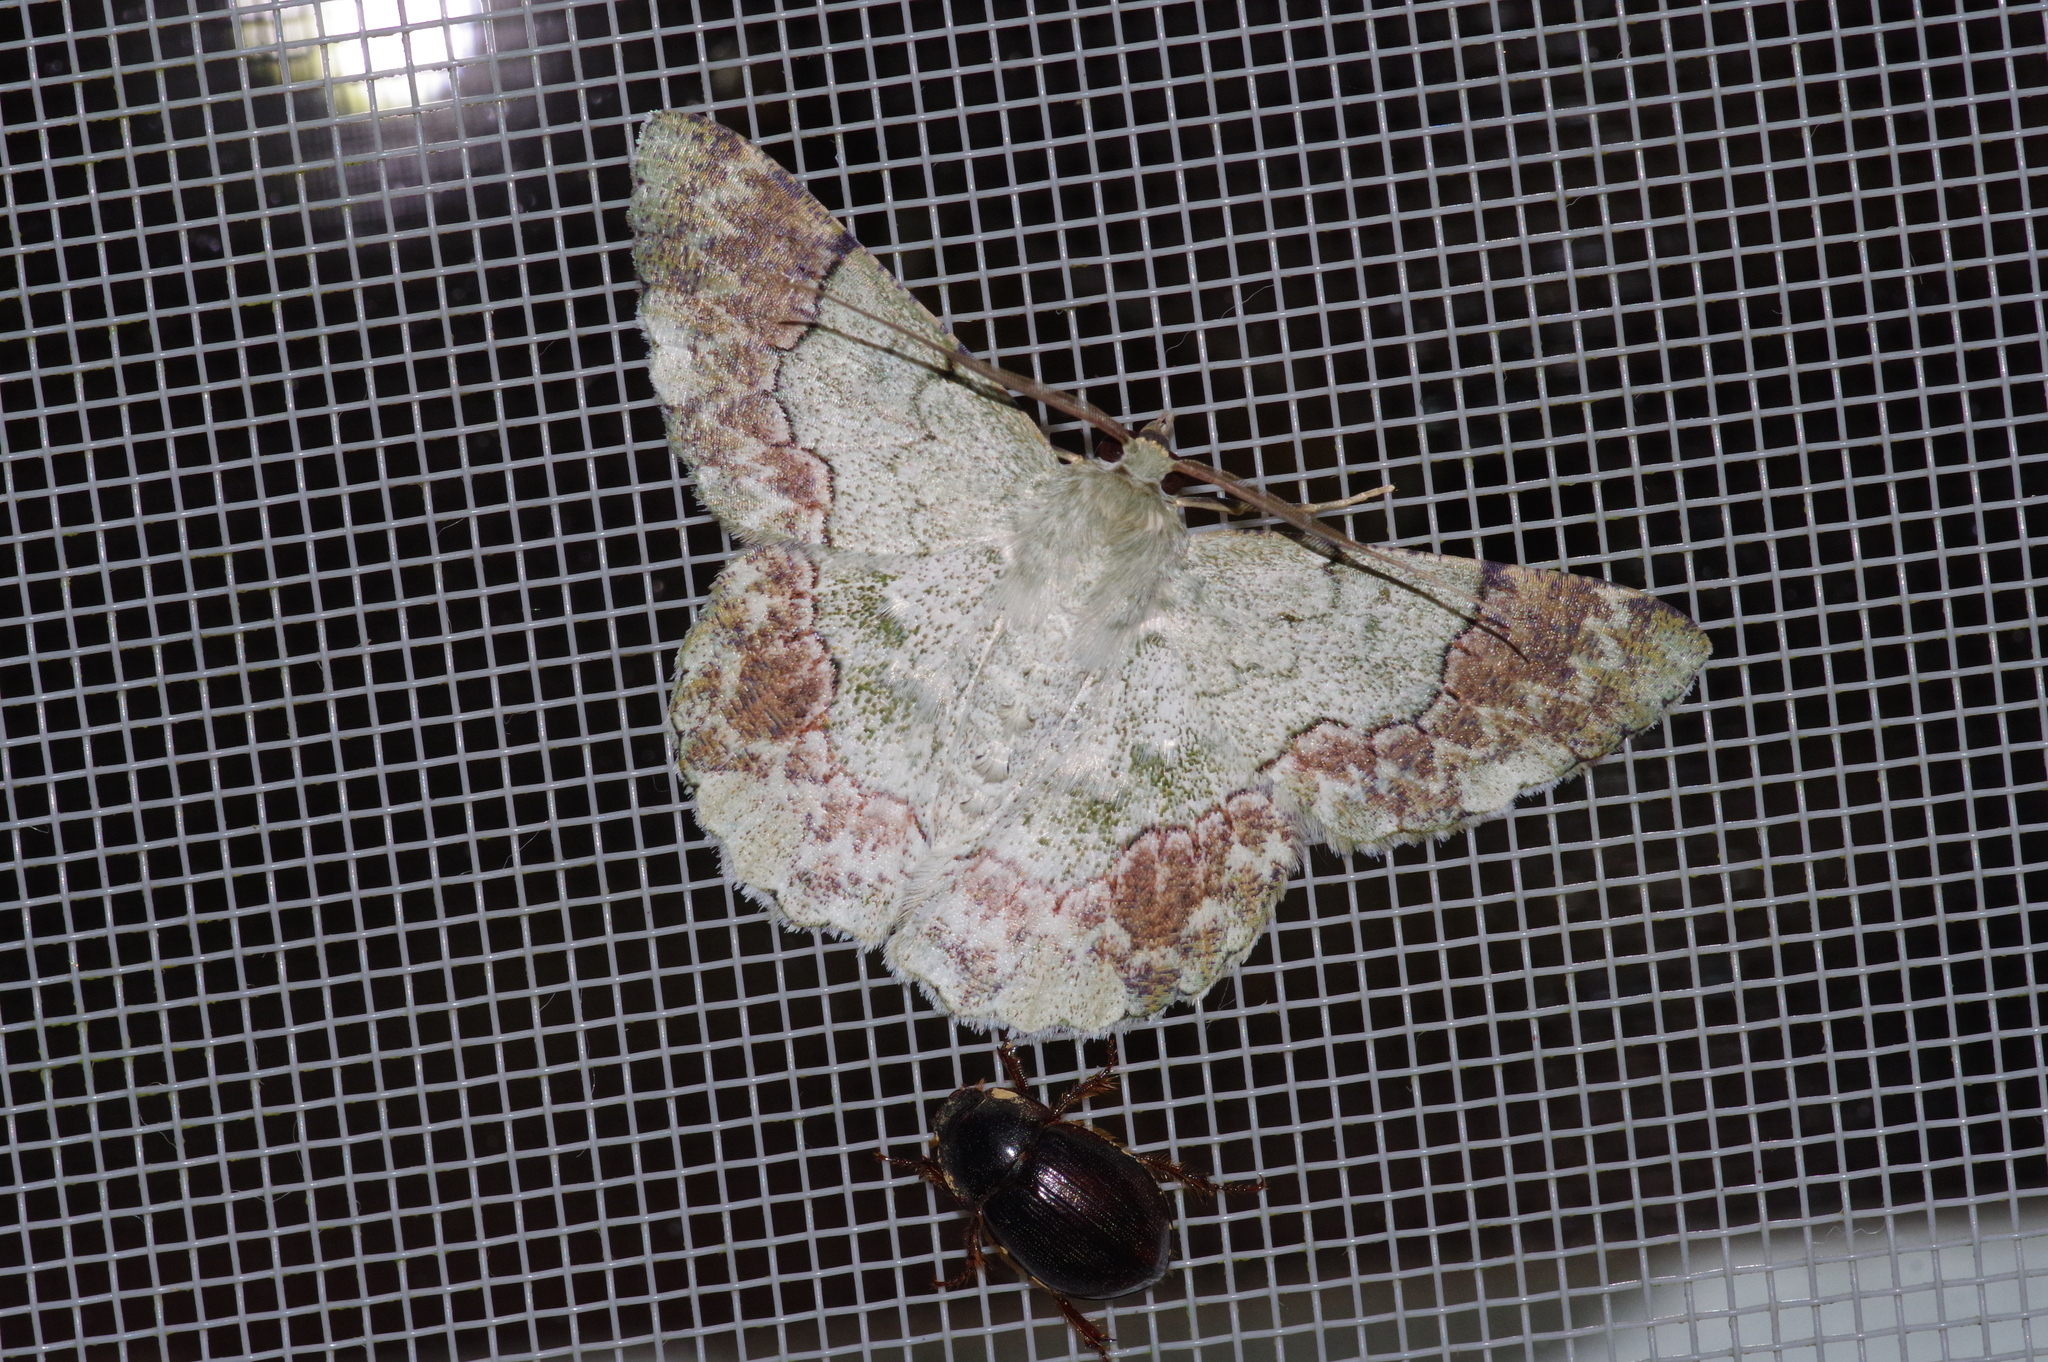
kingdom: Animalia
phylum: Arthropoda
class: Insecta
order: Lepidoptera
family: Geometridae
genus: Pingasa
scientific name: Pingasa ruginaria
